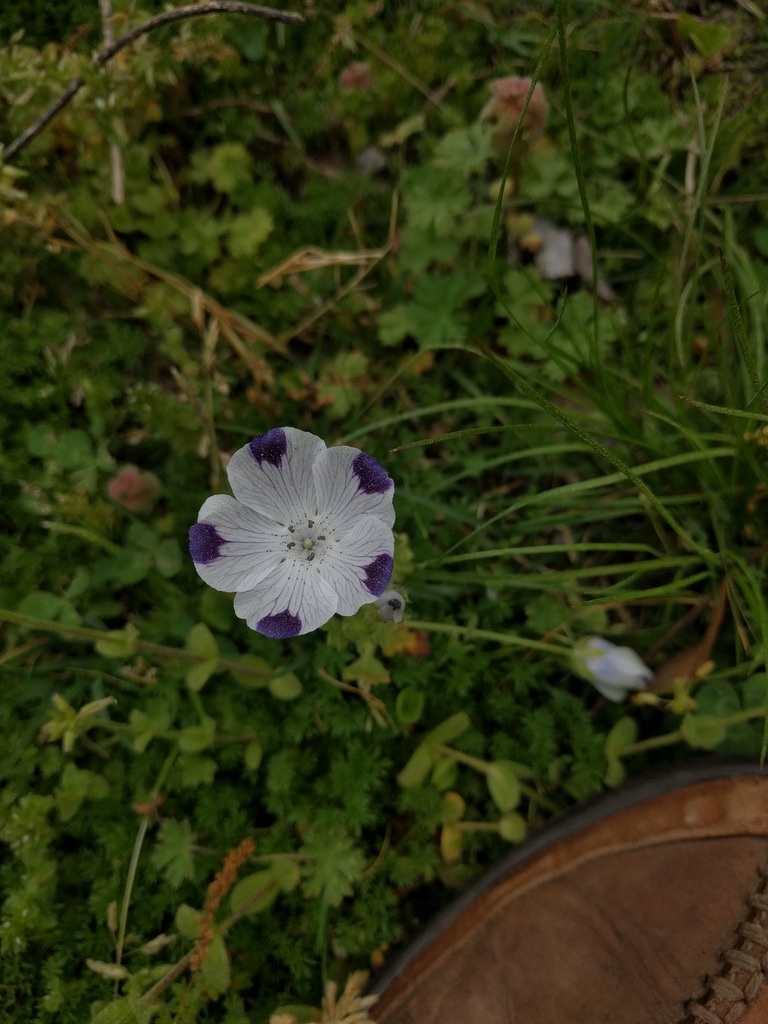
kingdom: Plantae
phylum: Tracheophyta
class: Magnoliopsida
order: Boraginales
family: Hydrophyllaceae
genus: Nemophila
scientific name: Nemophila maculata
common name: Fivespot
